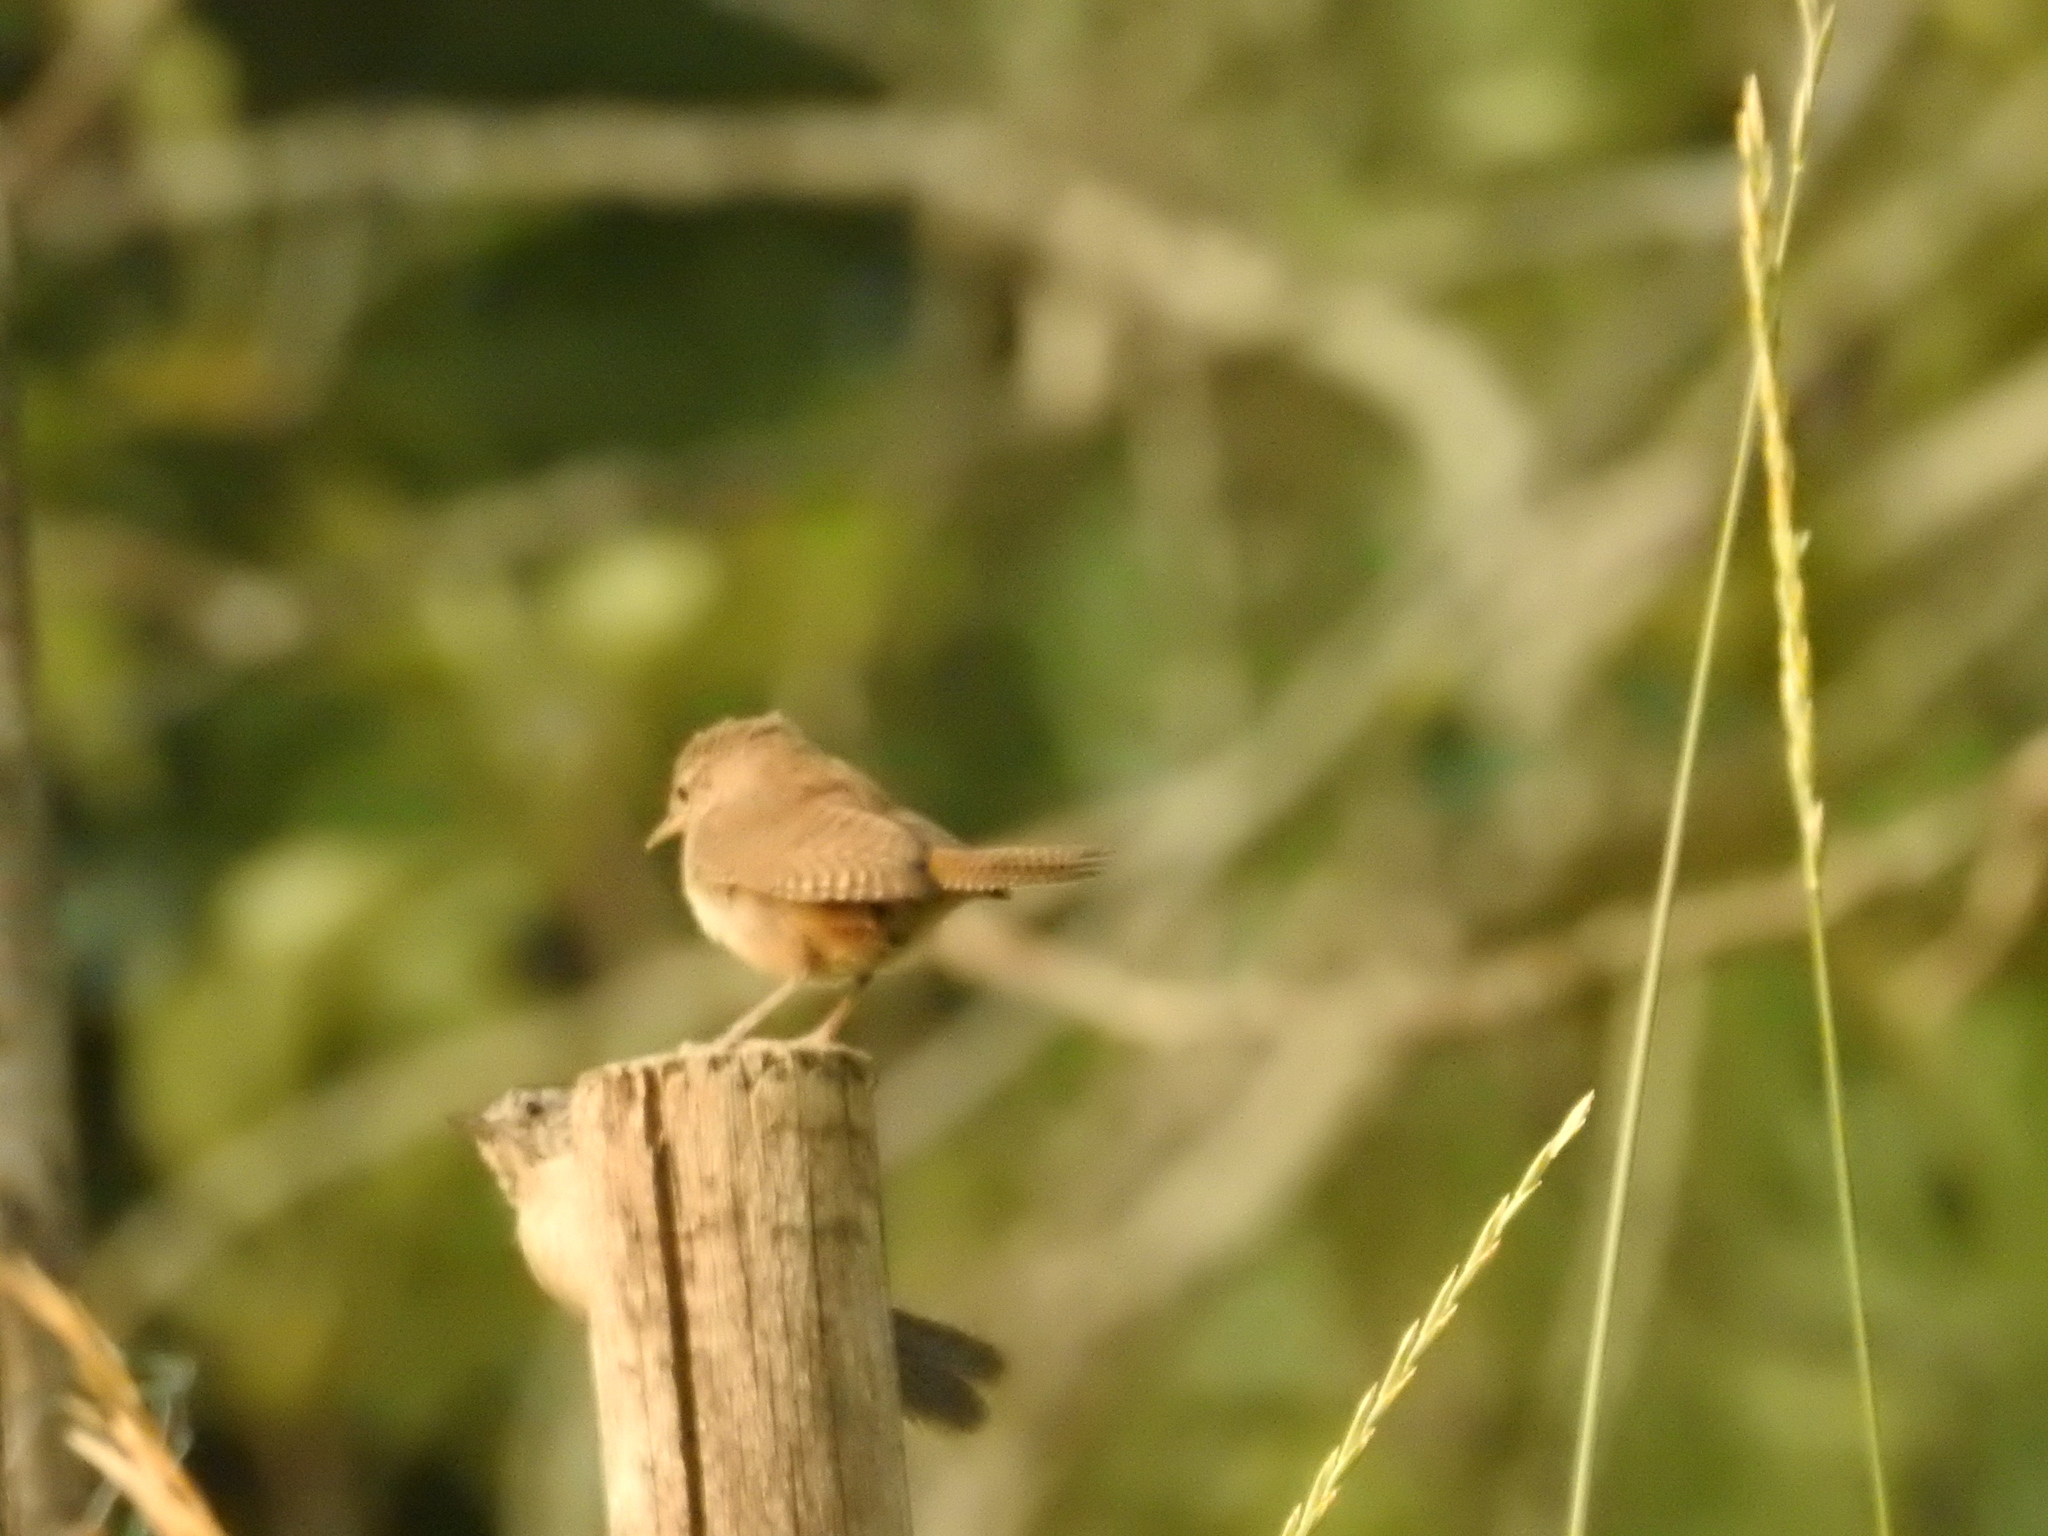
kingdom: Animalia
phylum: Chordata
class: Aves
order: Passeriformes
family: Troglodytidae
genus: Troglodytes
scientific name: Troglodytes aedon
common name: House wren
